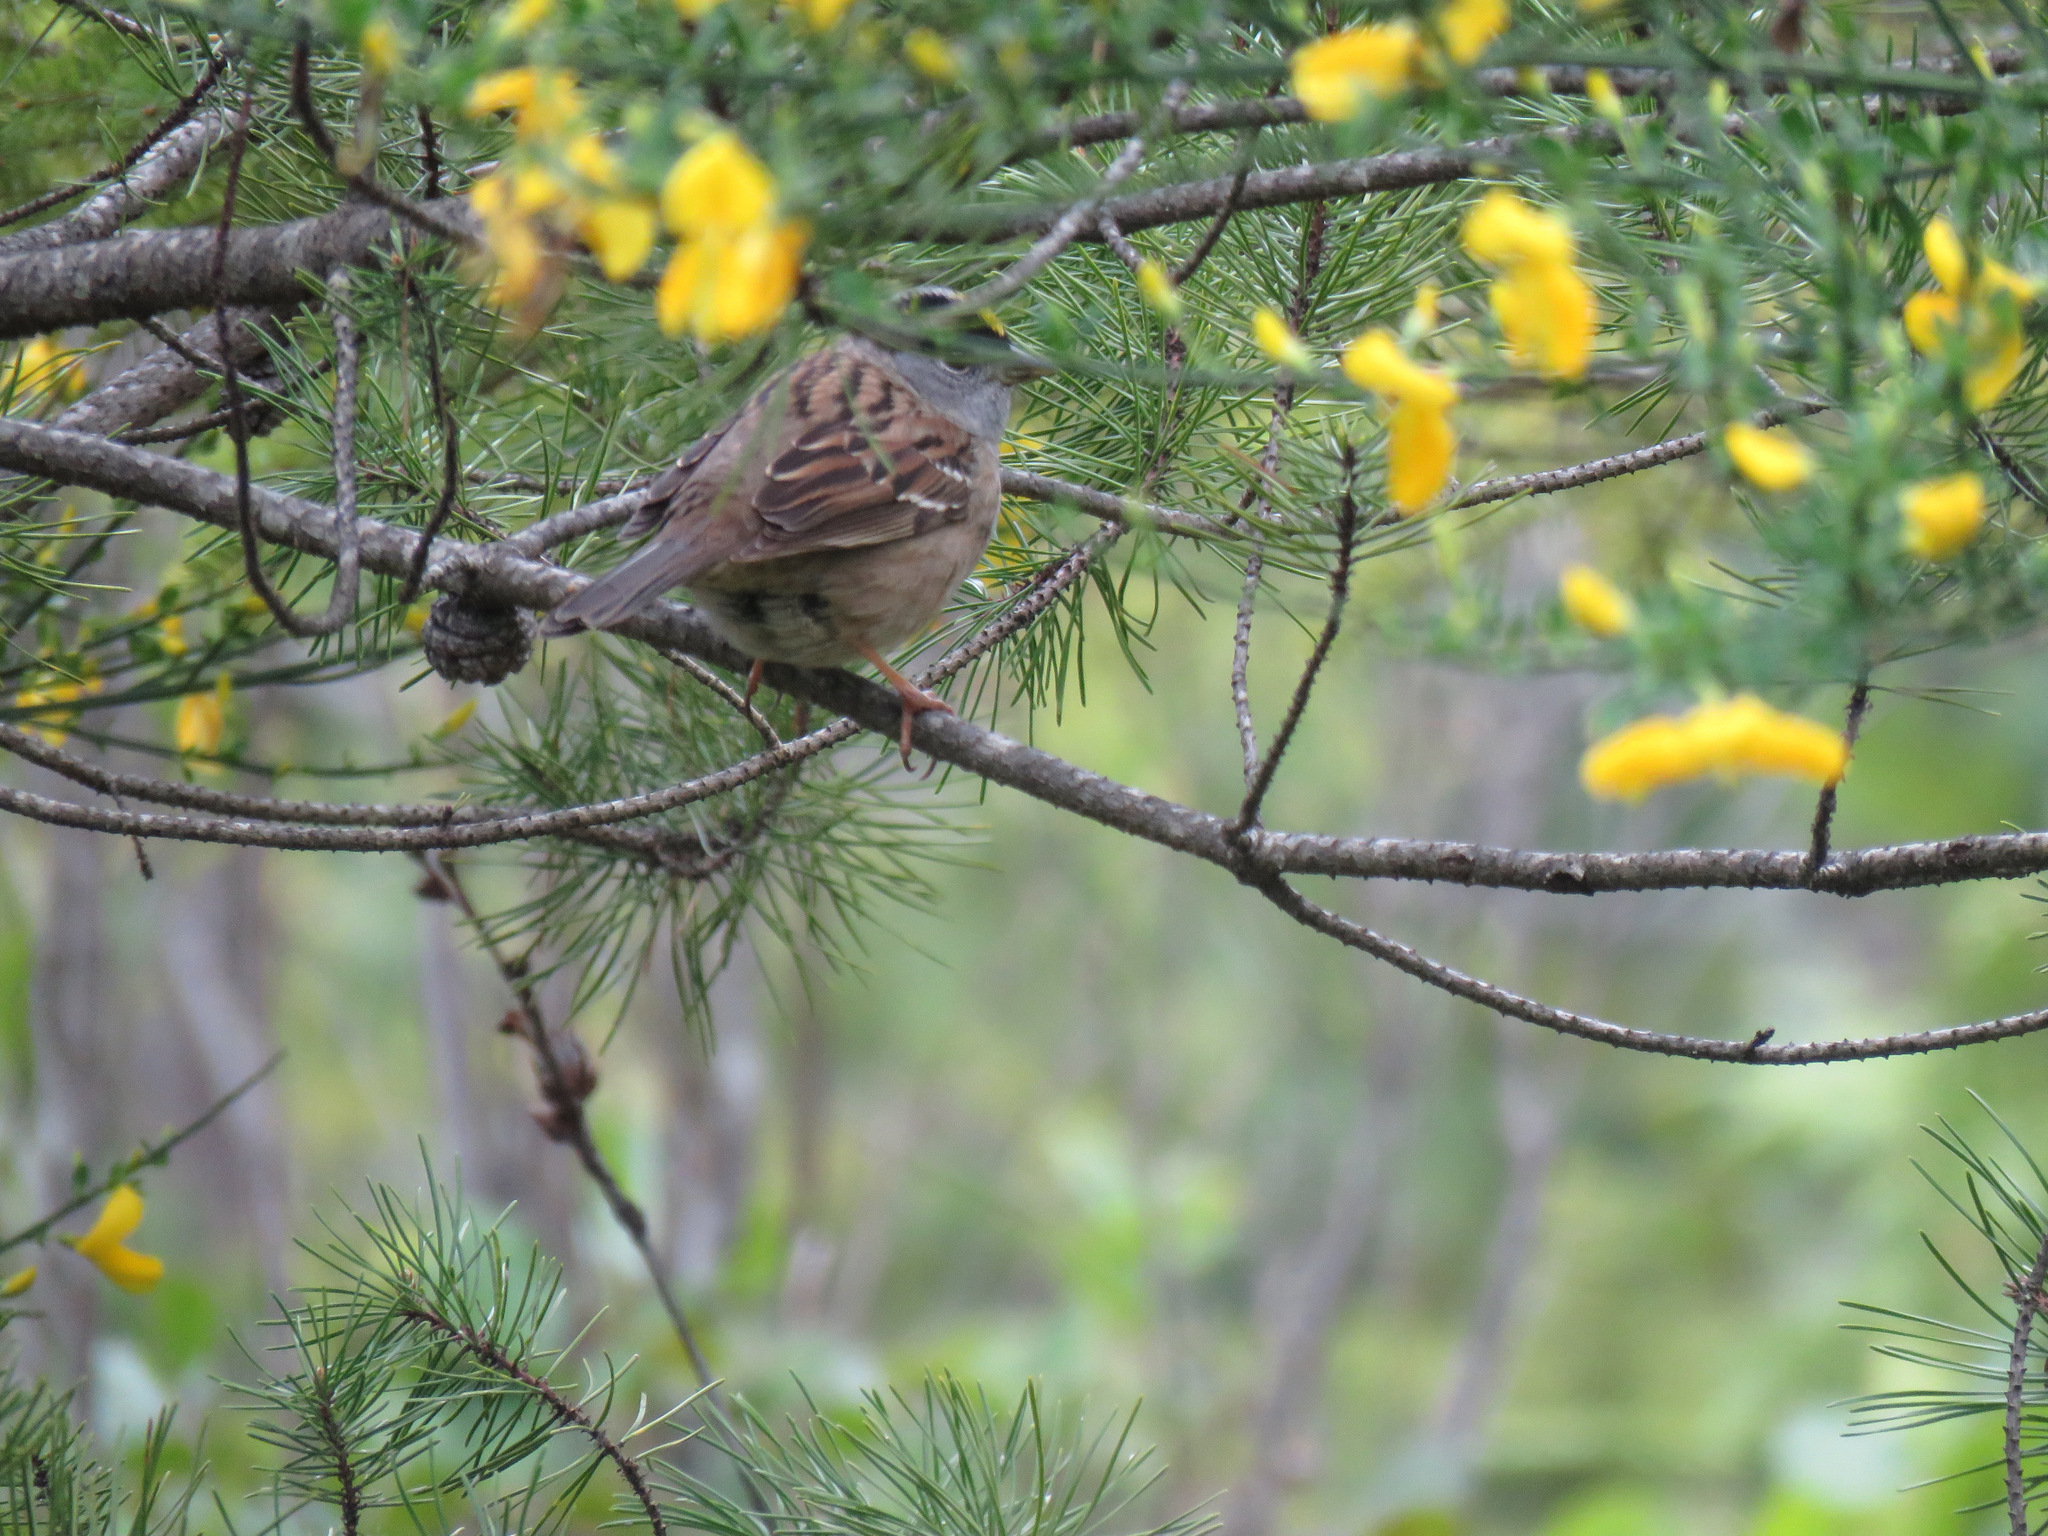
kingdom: Animalia
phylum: Chordata
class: Aves
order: Passeriformes
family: Passerellidae
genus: Zonotrichia
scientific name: Zonotrichia atricapilla
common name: Golden-crowned sparrow
